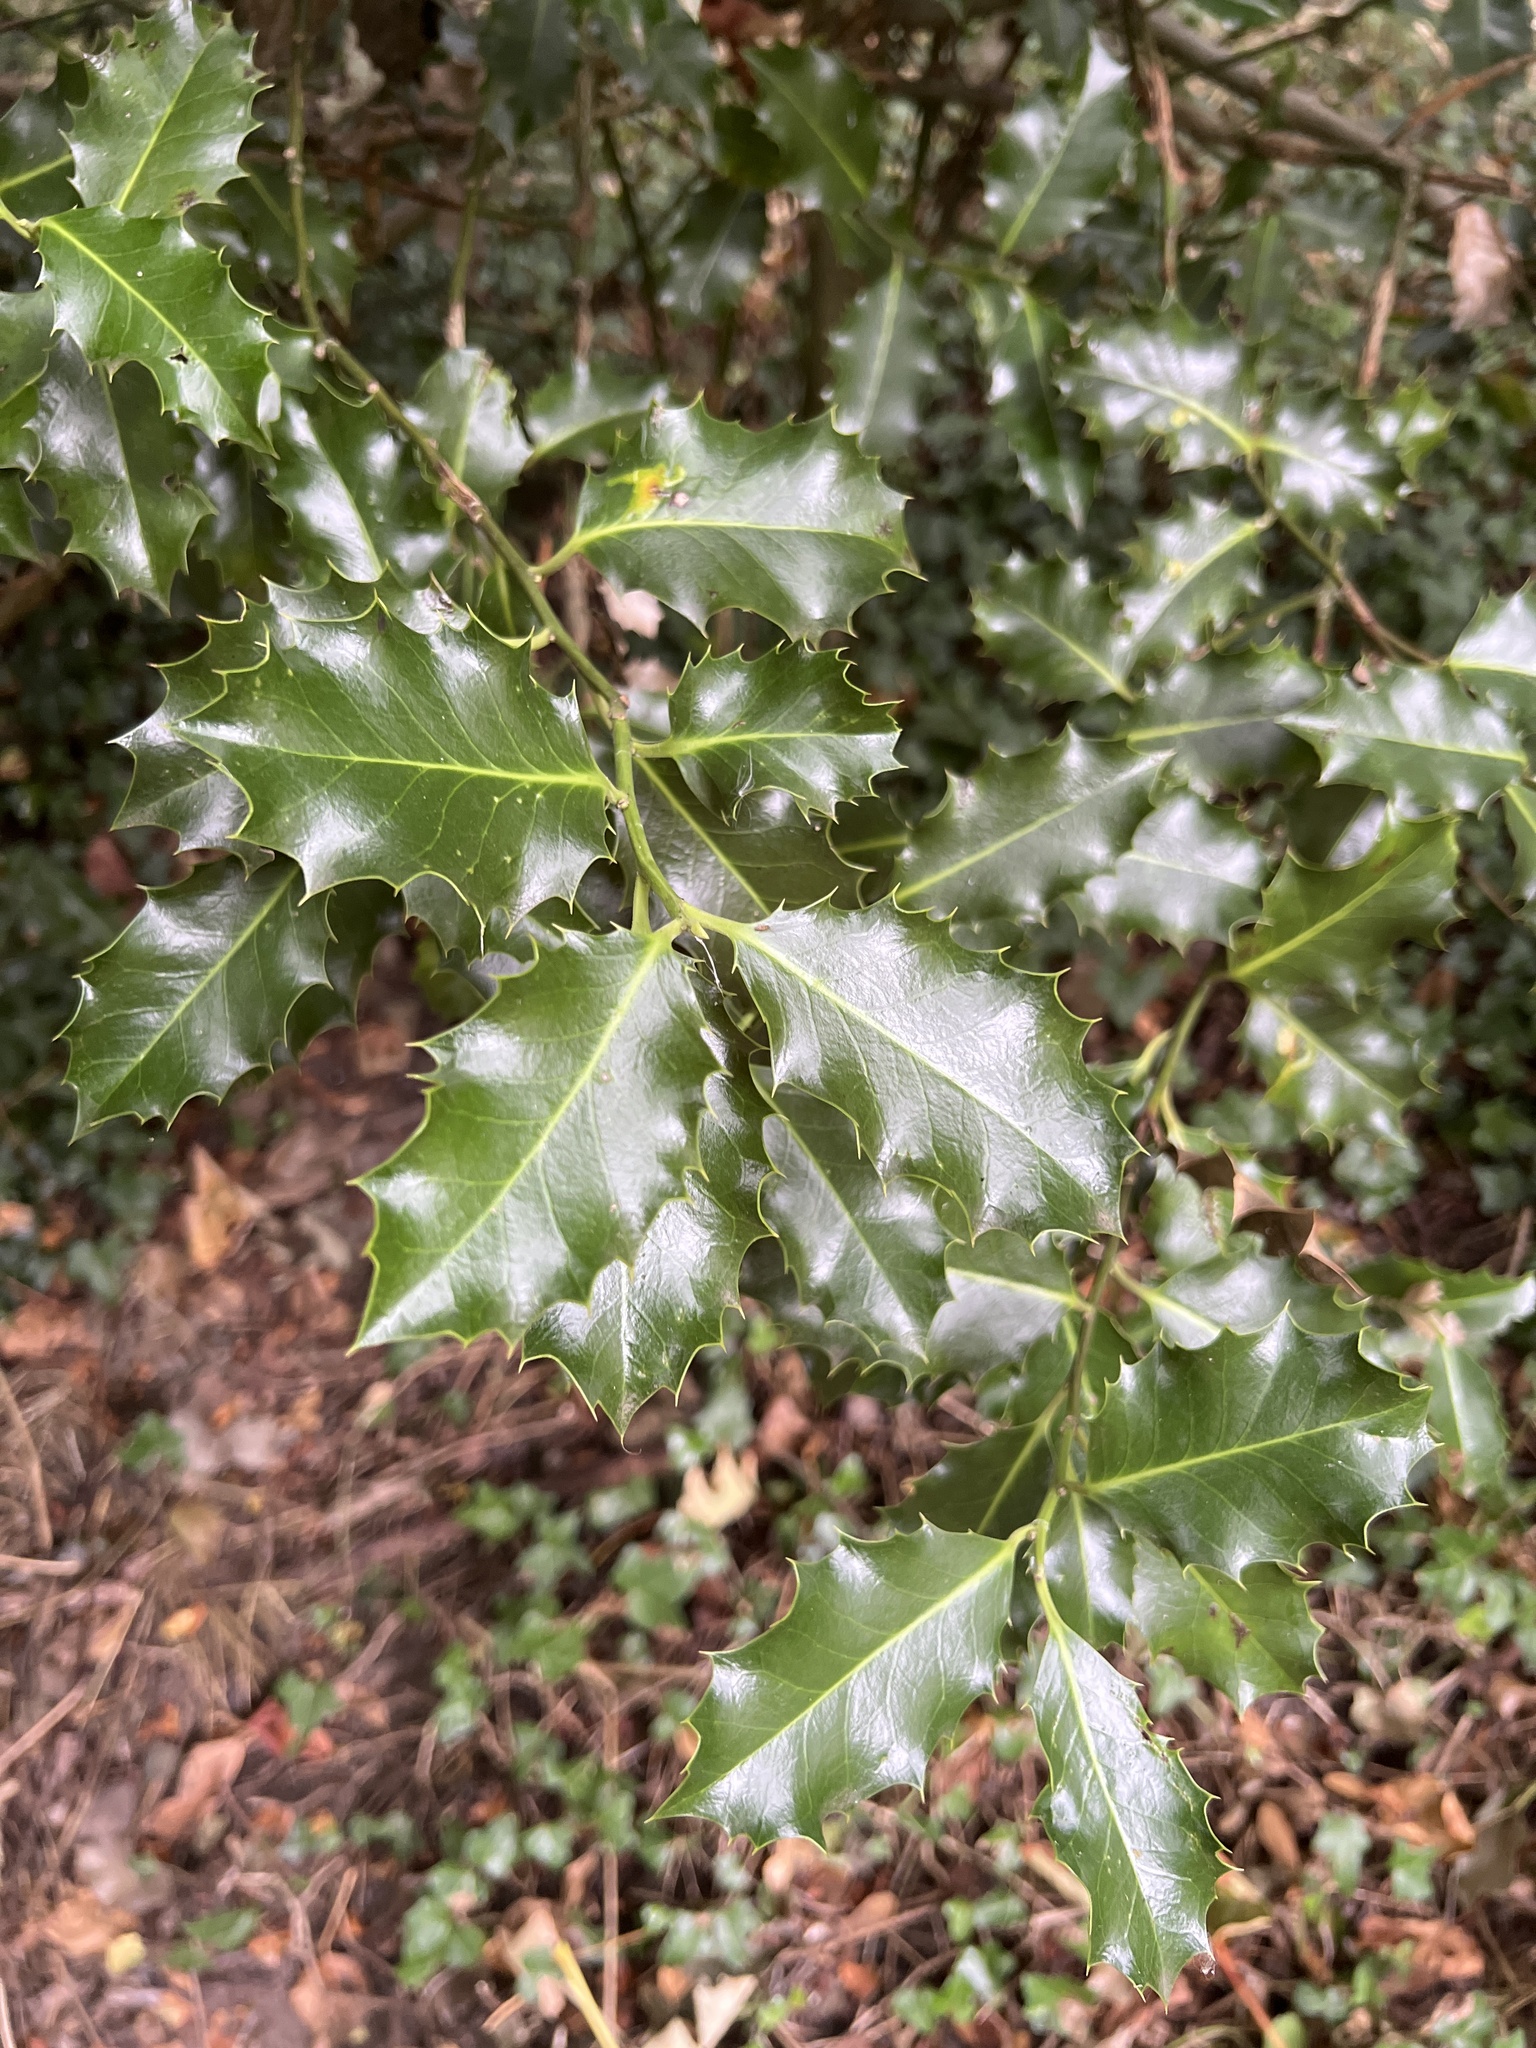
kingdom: Plantae
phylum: Tracheophyta
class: Magnoliopsida
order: Aquifoliales
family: Aquifoliaceae
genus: Ilex
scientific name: Ilex aquifolium
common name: English holly
